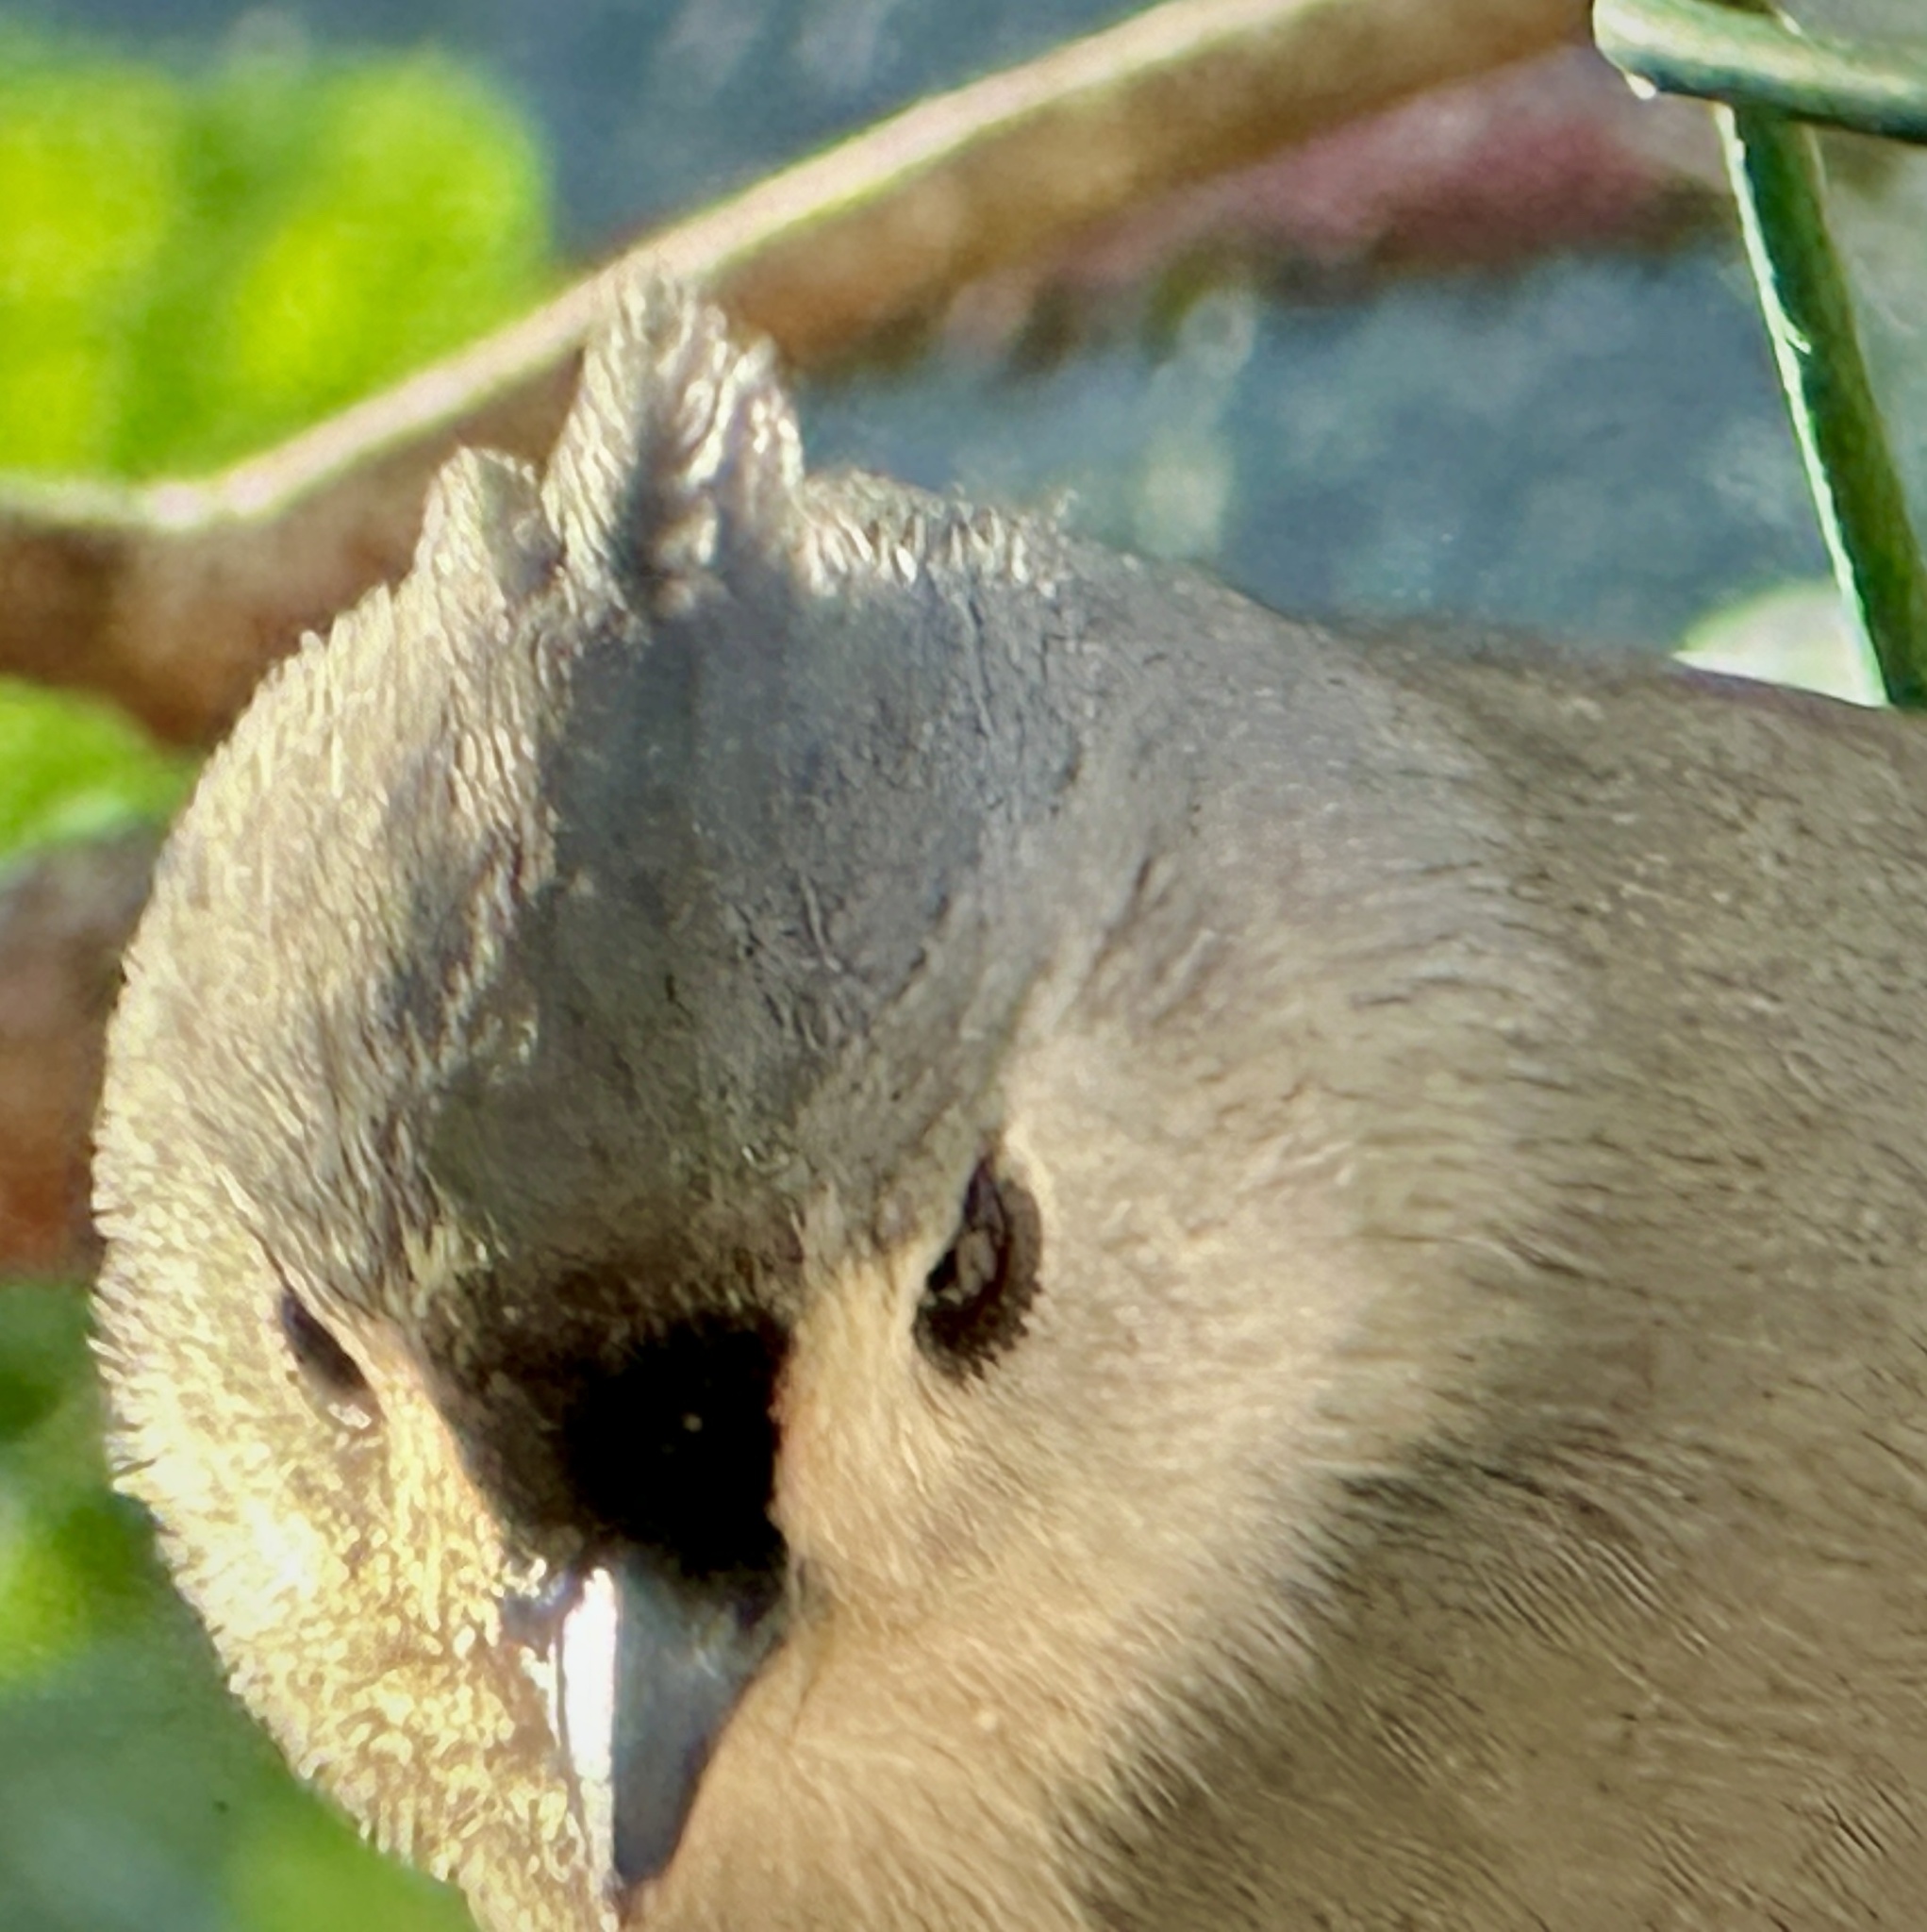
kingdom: Animalia
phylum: Chordata
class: Aves
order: Passeriformes
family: Paridae
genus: Baeolophus
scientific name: Baeolophus bicolor
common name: Tufted titmouse
